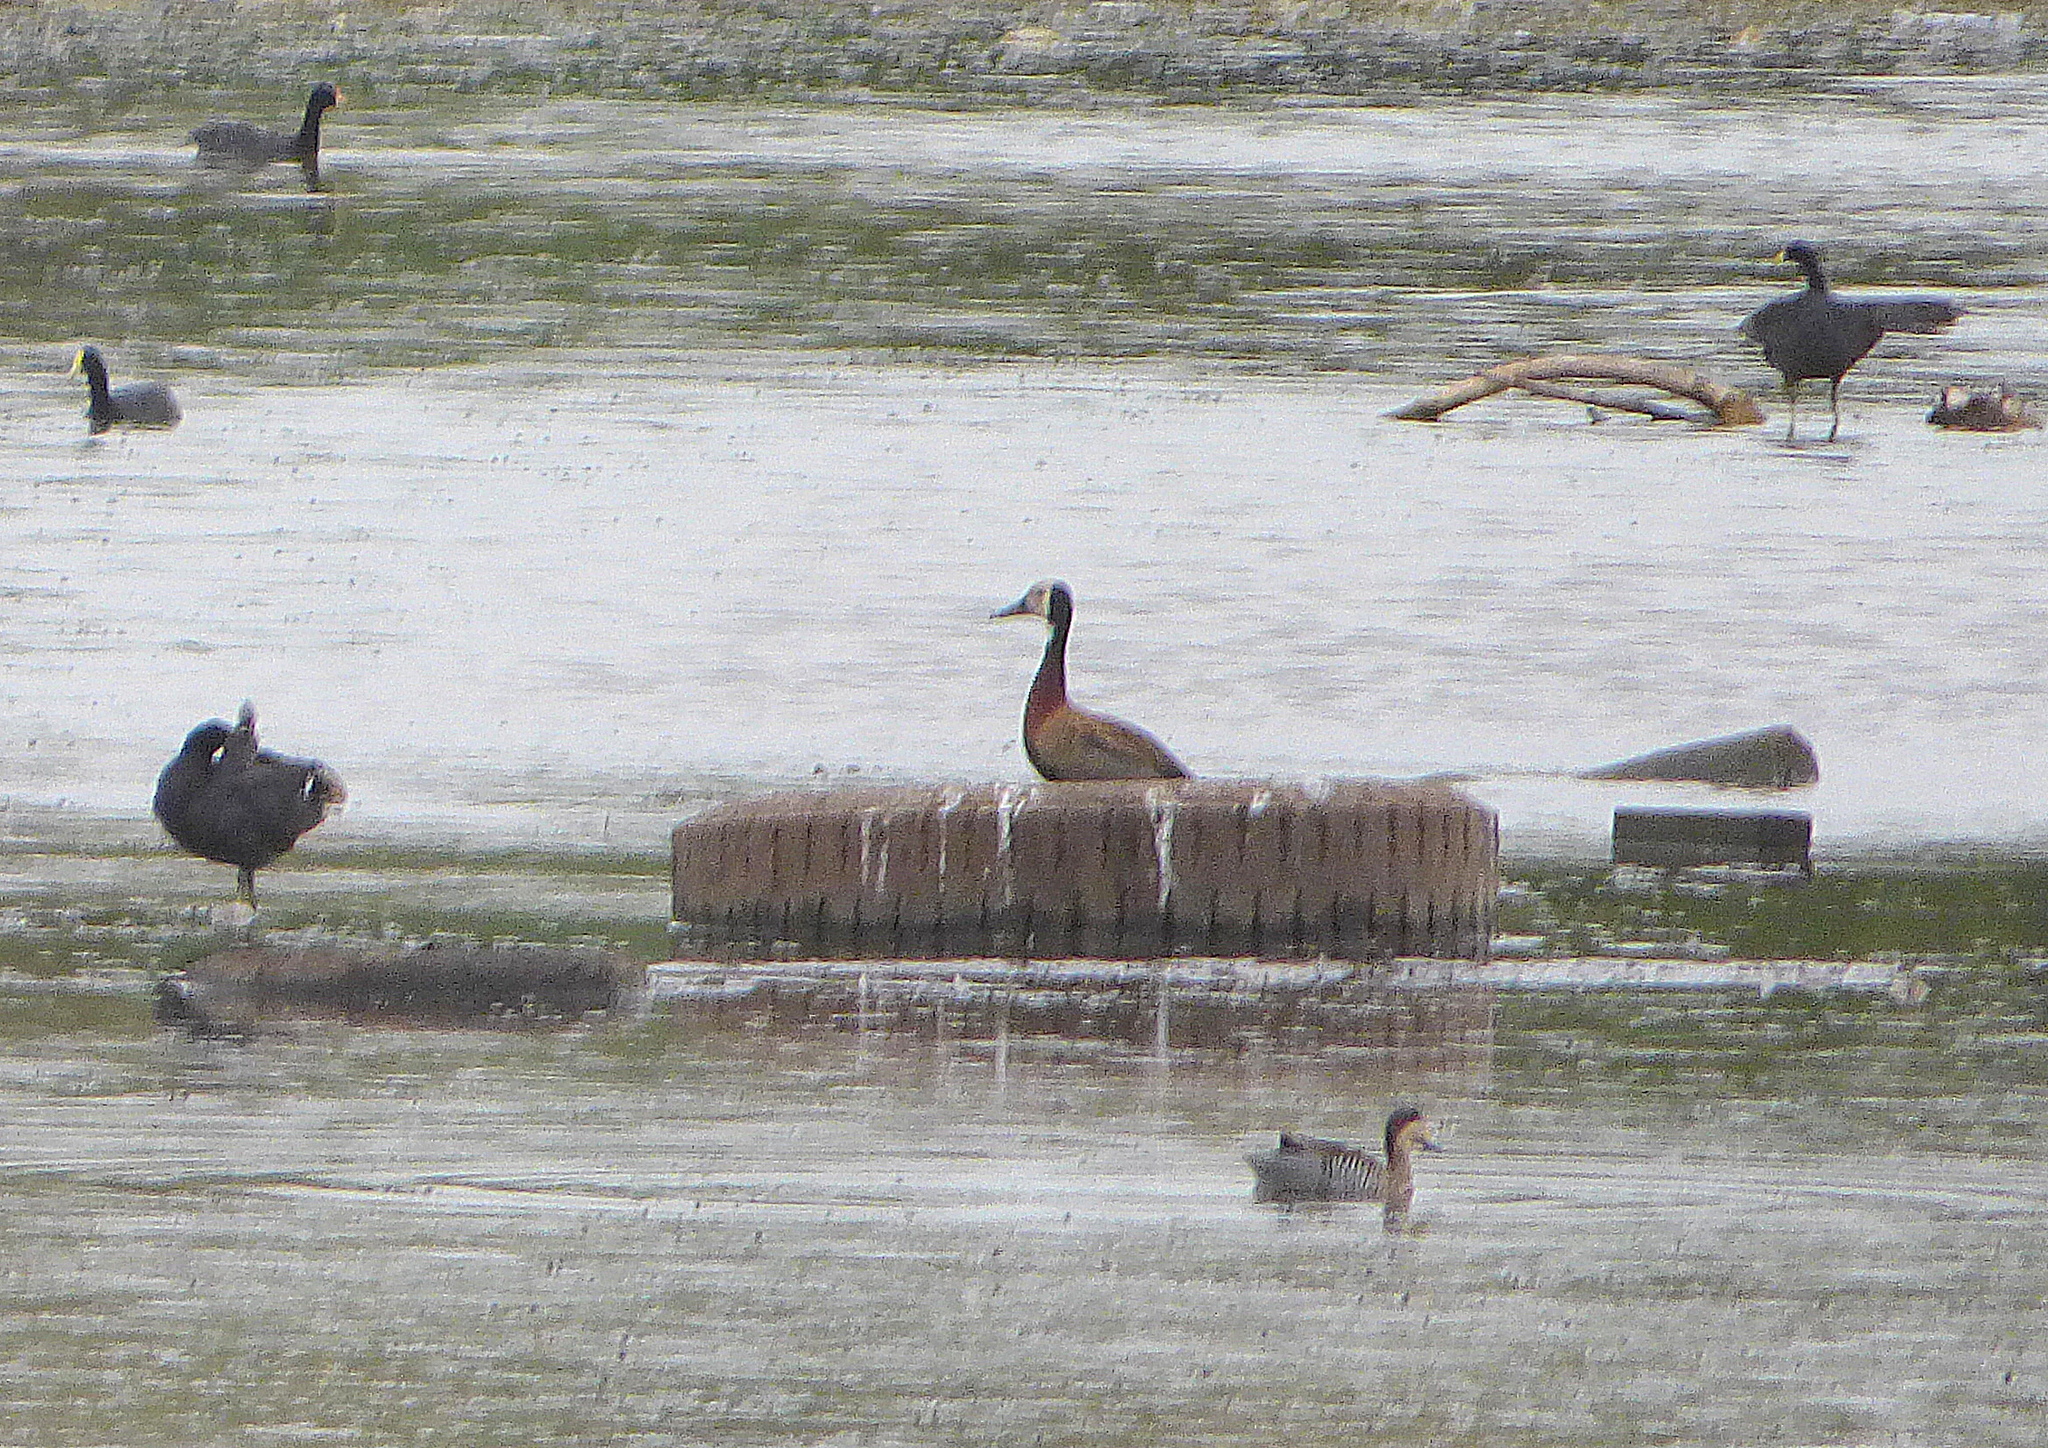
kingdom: Animalia
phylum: Chordata
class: Aves
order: Anseriformes
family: Anatidae
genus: Dendrocygna
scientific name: Dendrocygna viduata
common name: White-faced whistling duck
